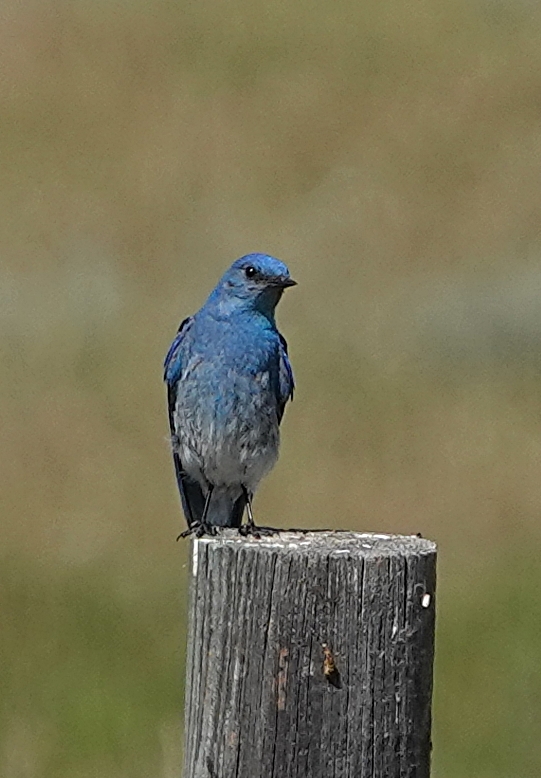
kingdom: Animalia
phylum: Chordata
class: Aves
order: Passeriformes
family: Turdidae
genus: Sialia
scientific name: Sialia currucoides
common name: Mountain bluebird
